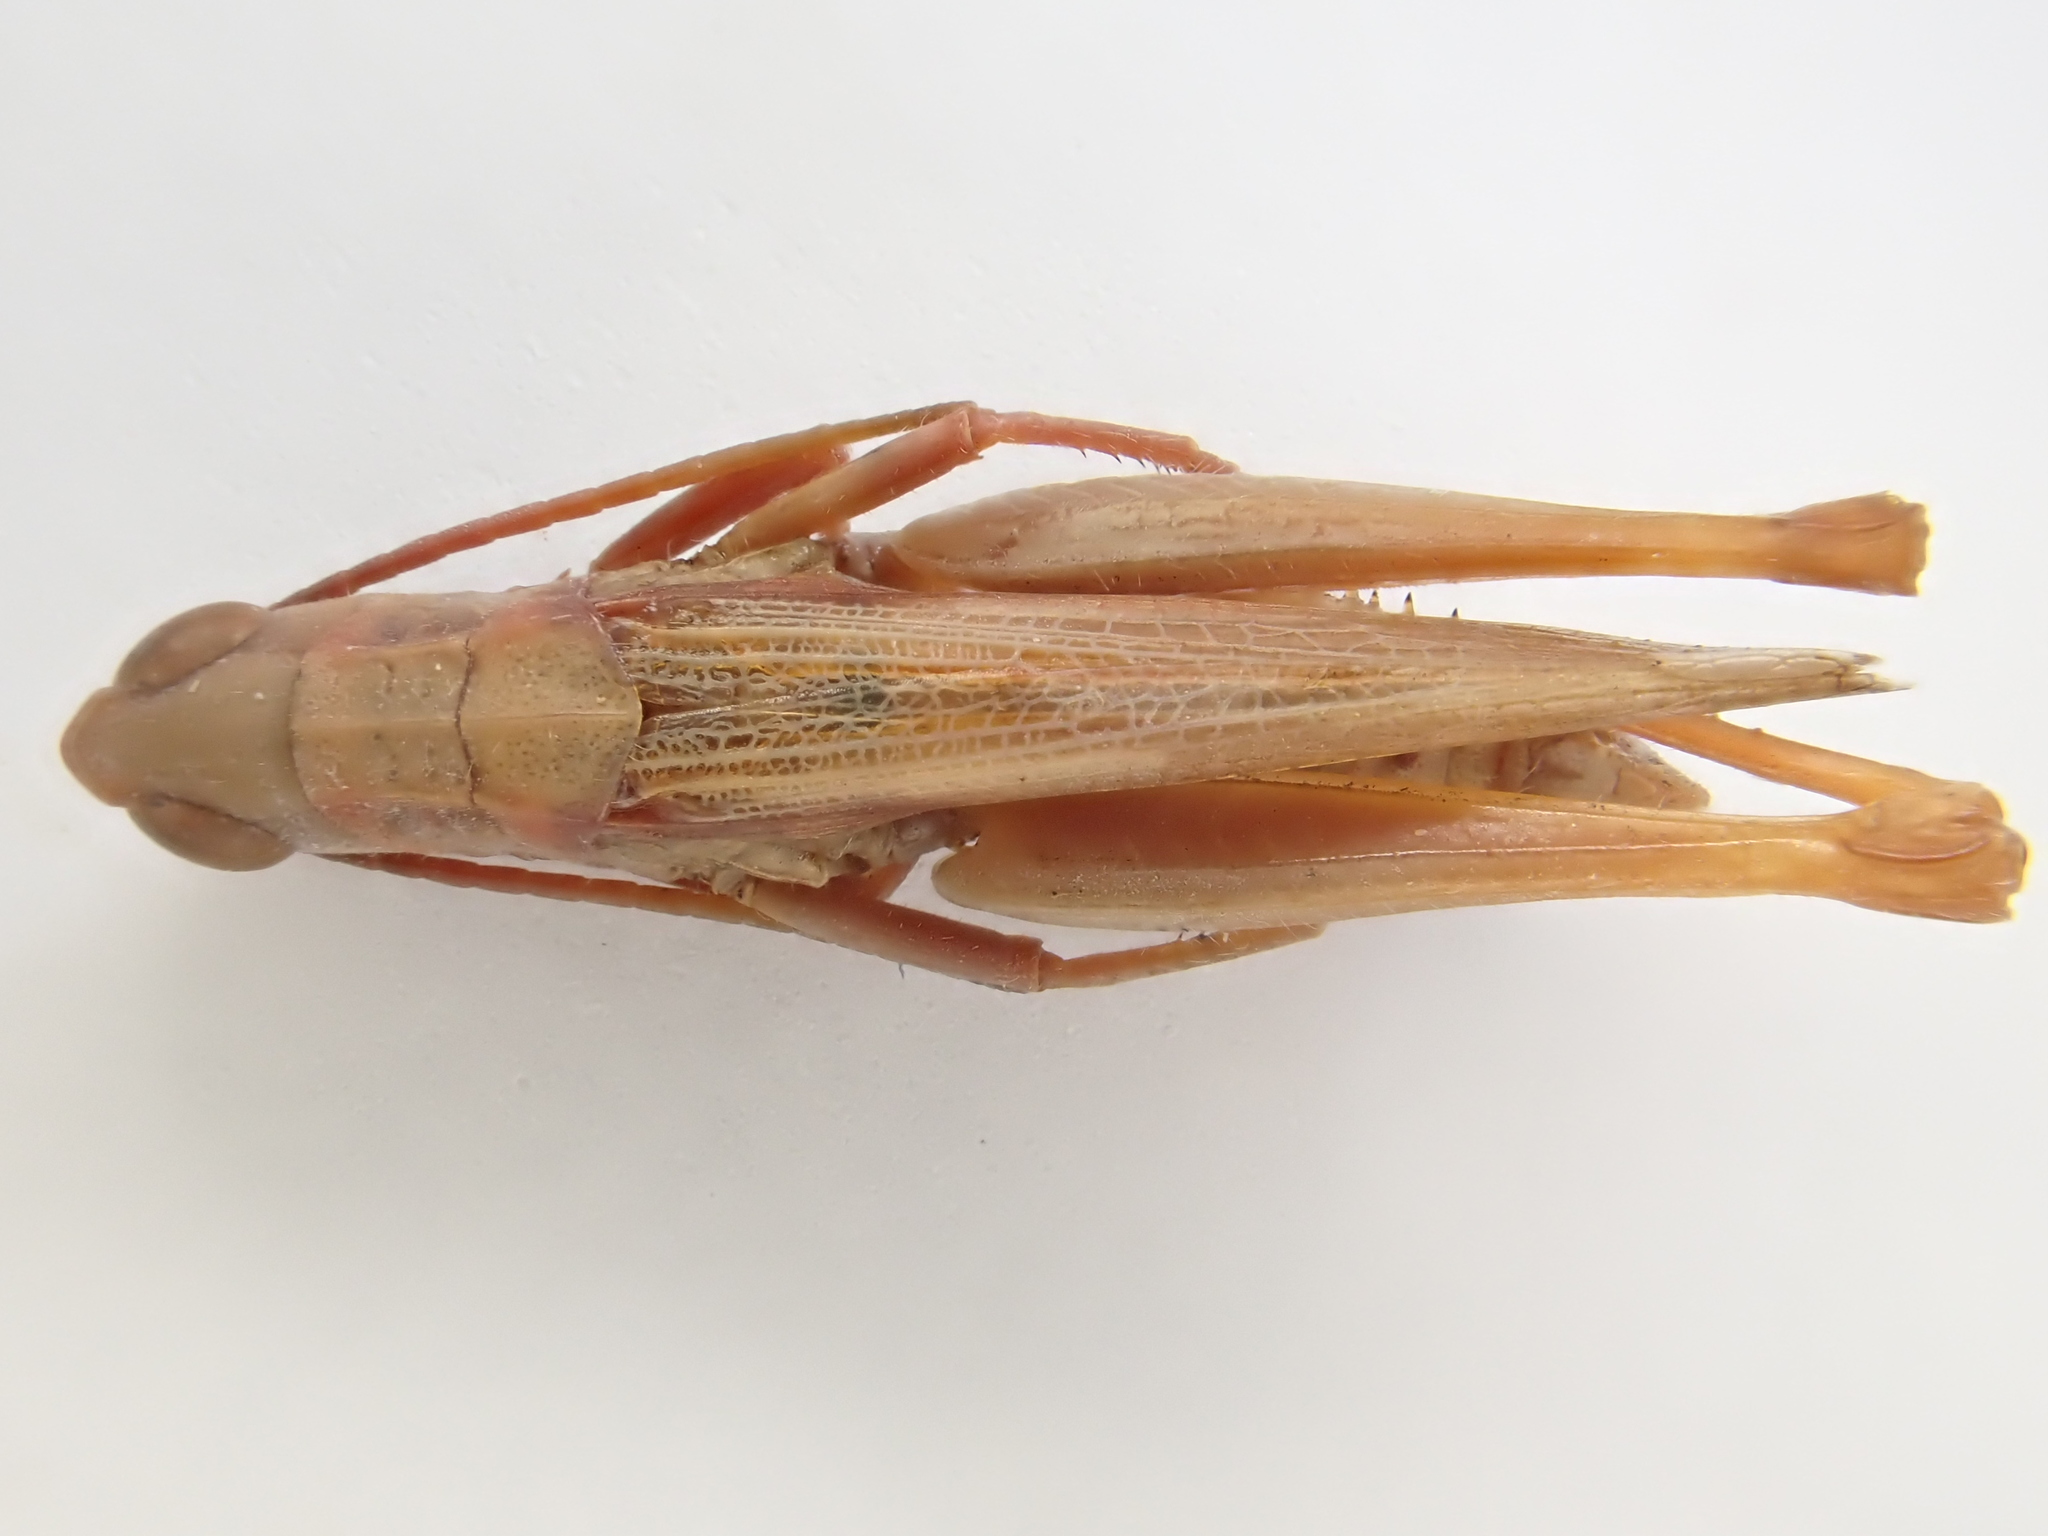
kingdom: Animalia
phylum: Arthropoda
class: Insecta
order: Orthoptera
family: Acrididae
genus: Chorthippus
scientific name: Chorthippus dorsatus
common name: Steppe grasshopper
